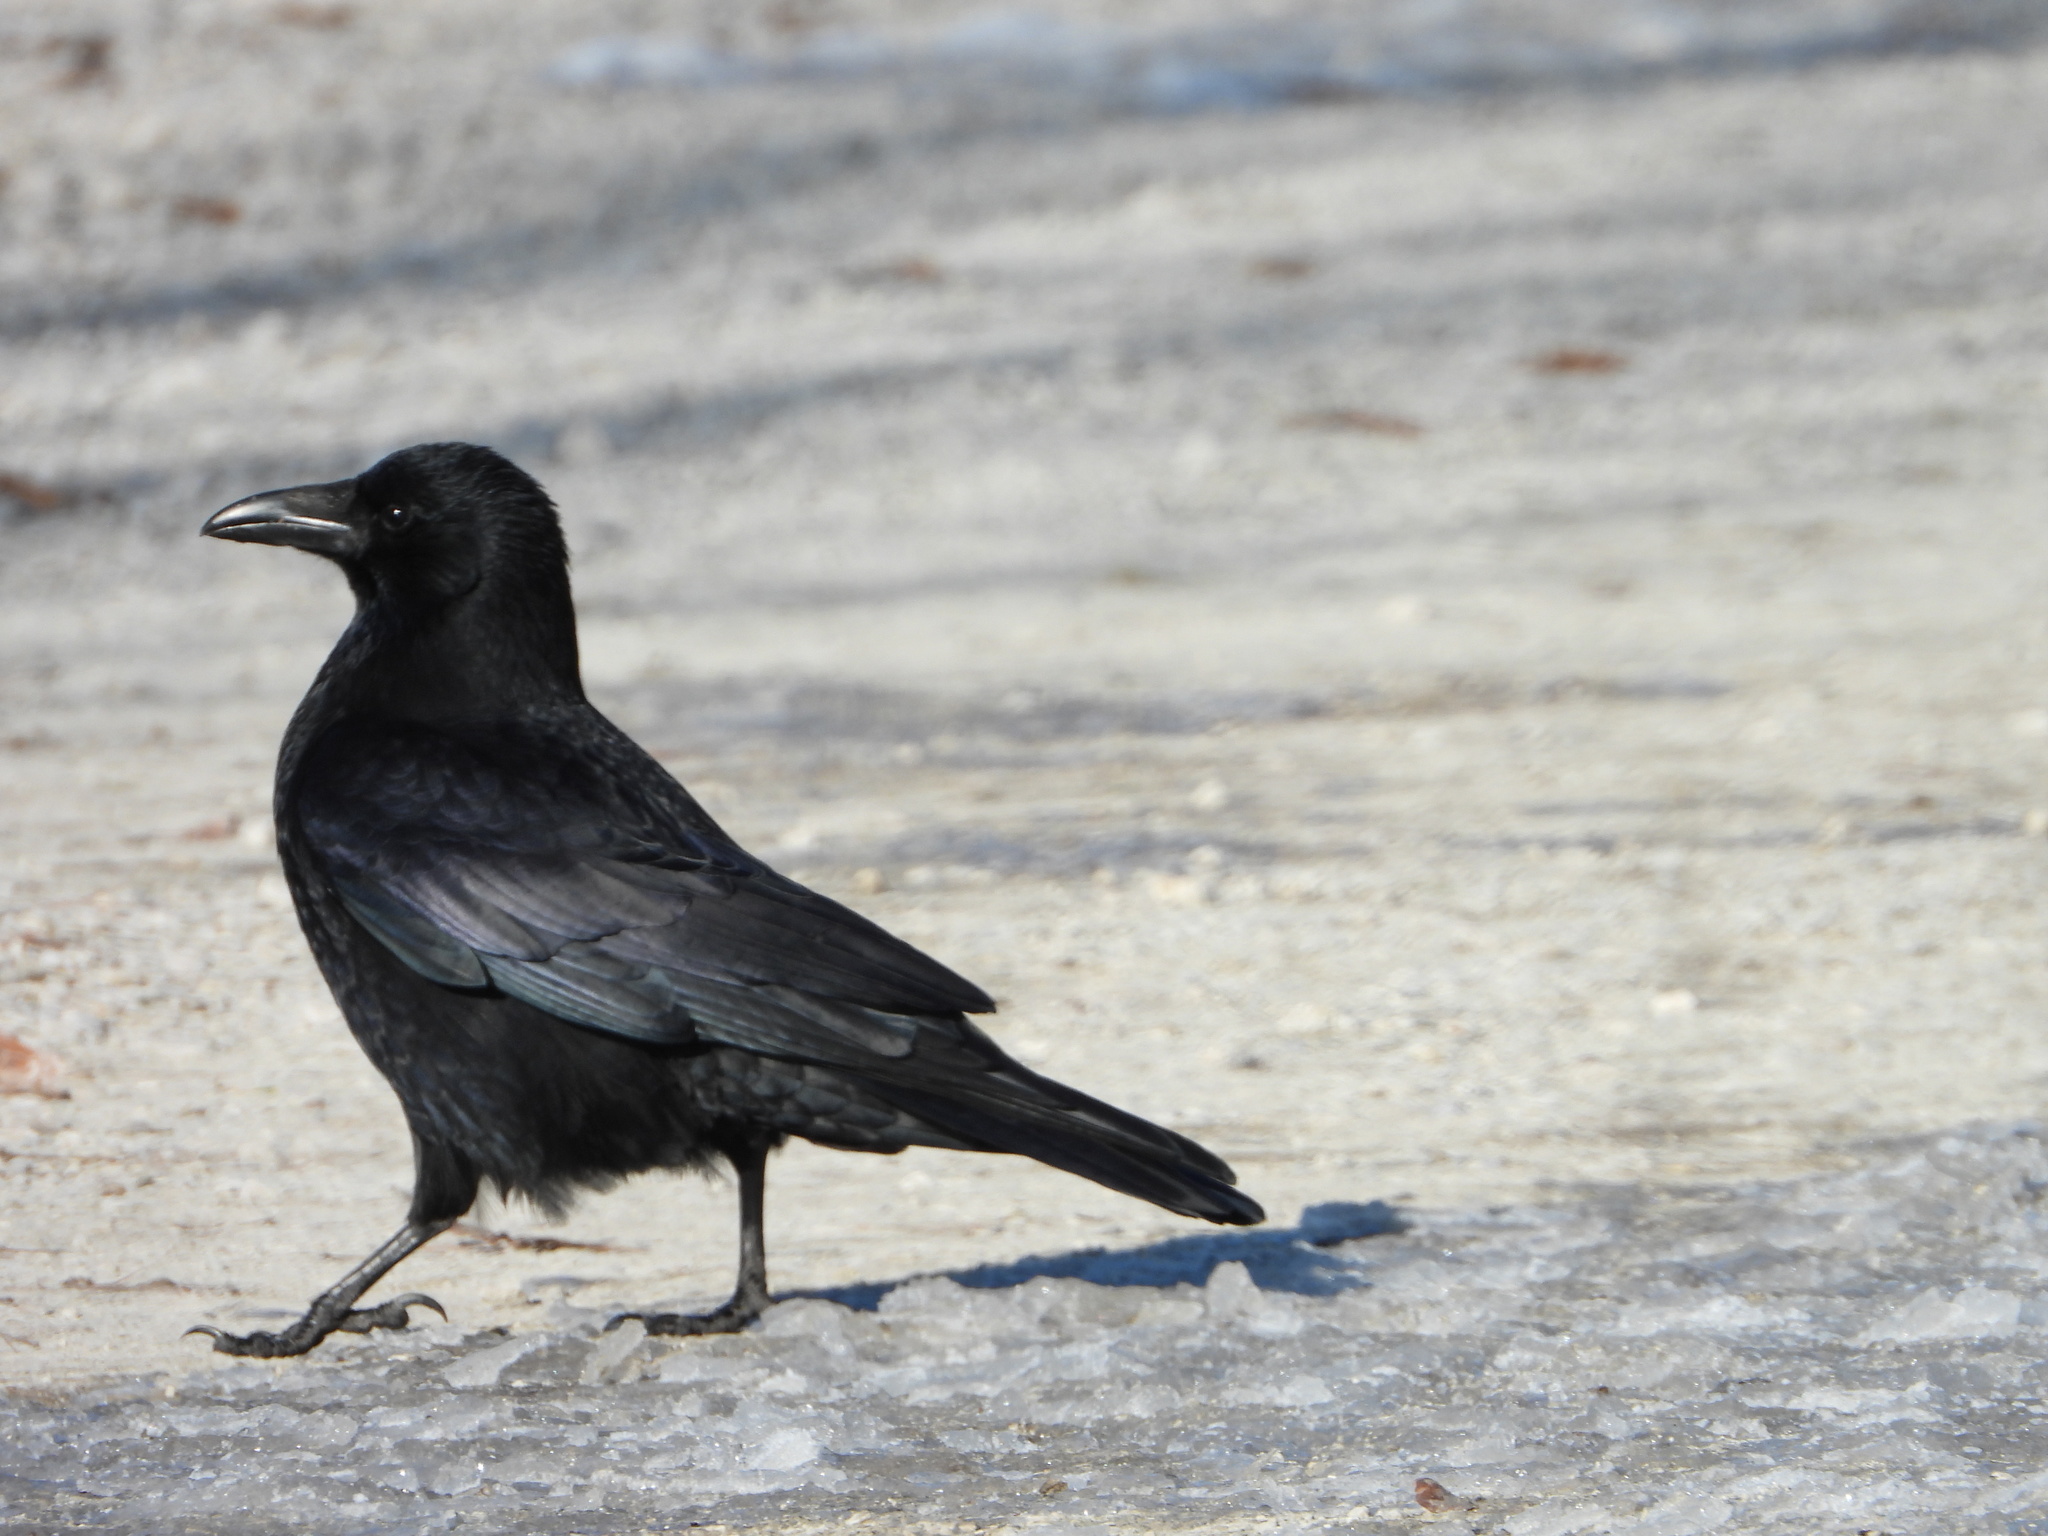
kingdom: Animalia
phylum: Chordata
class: Aves
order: Passeriformes
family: Corvidae
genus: Corvus
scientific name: Corvus corone
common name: Carrion crow
